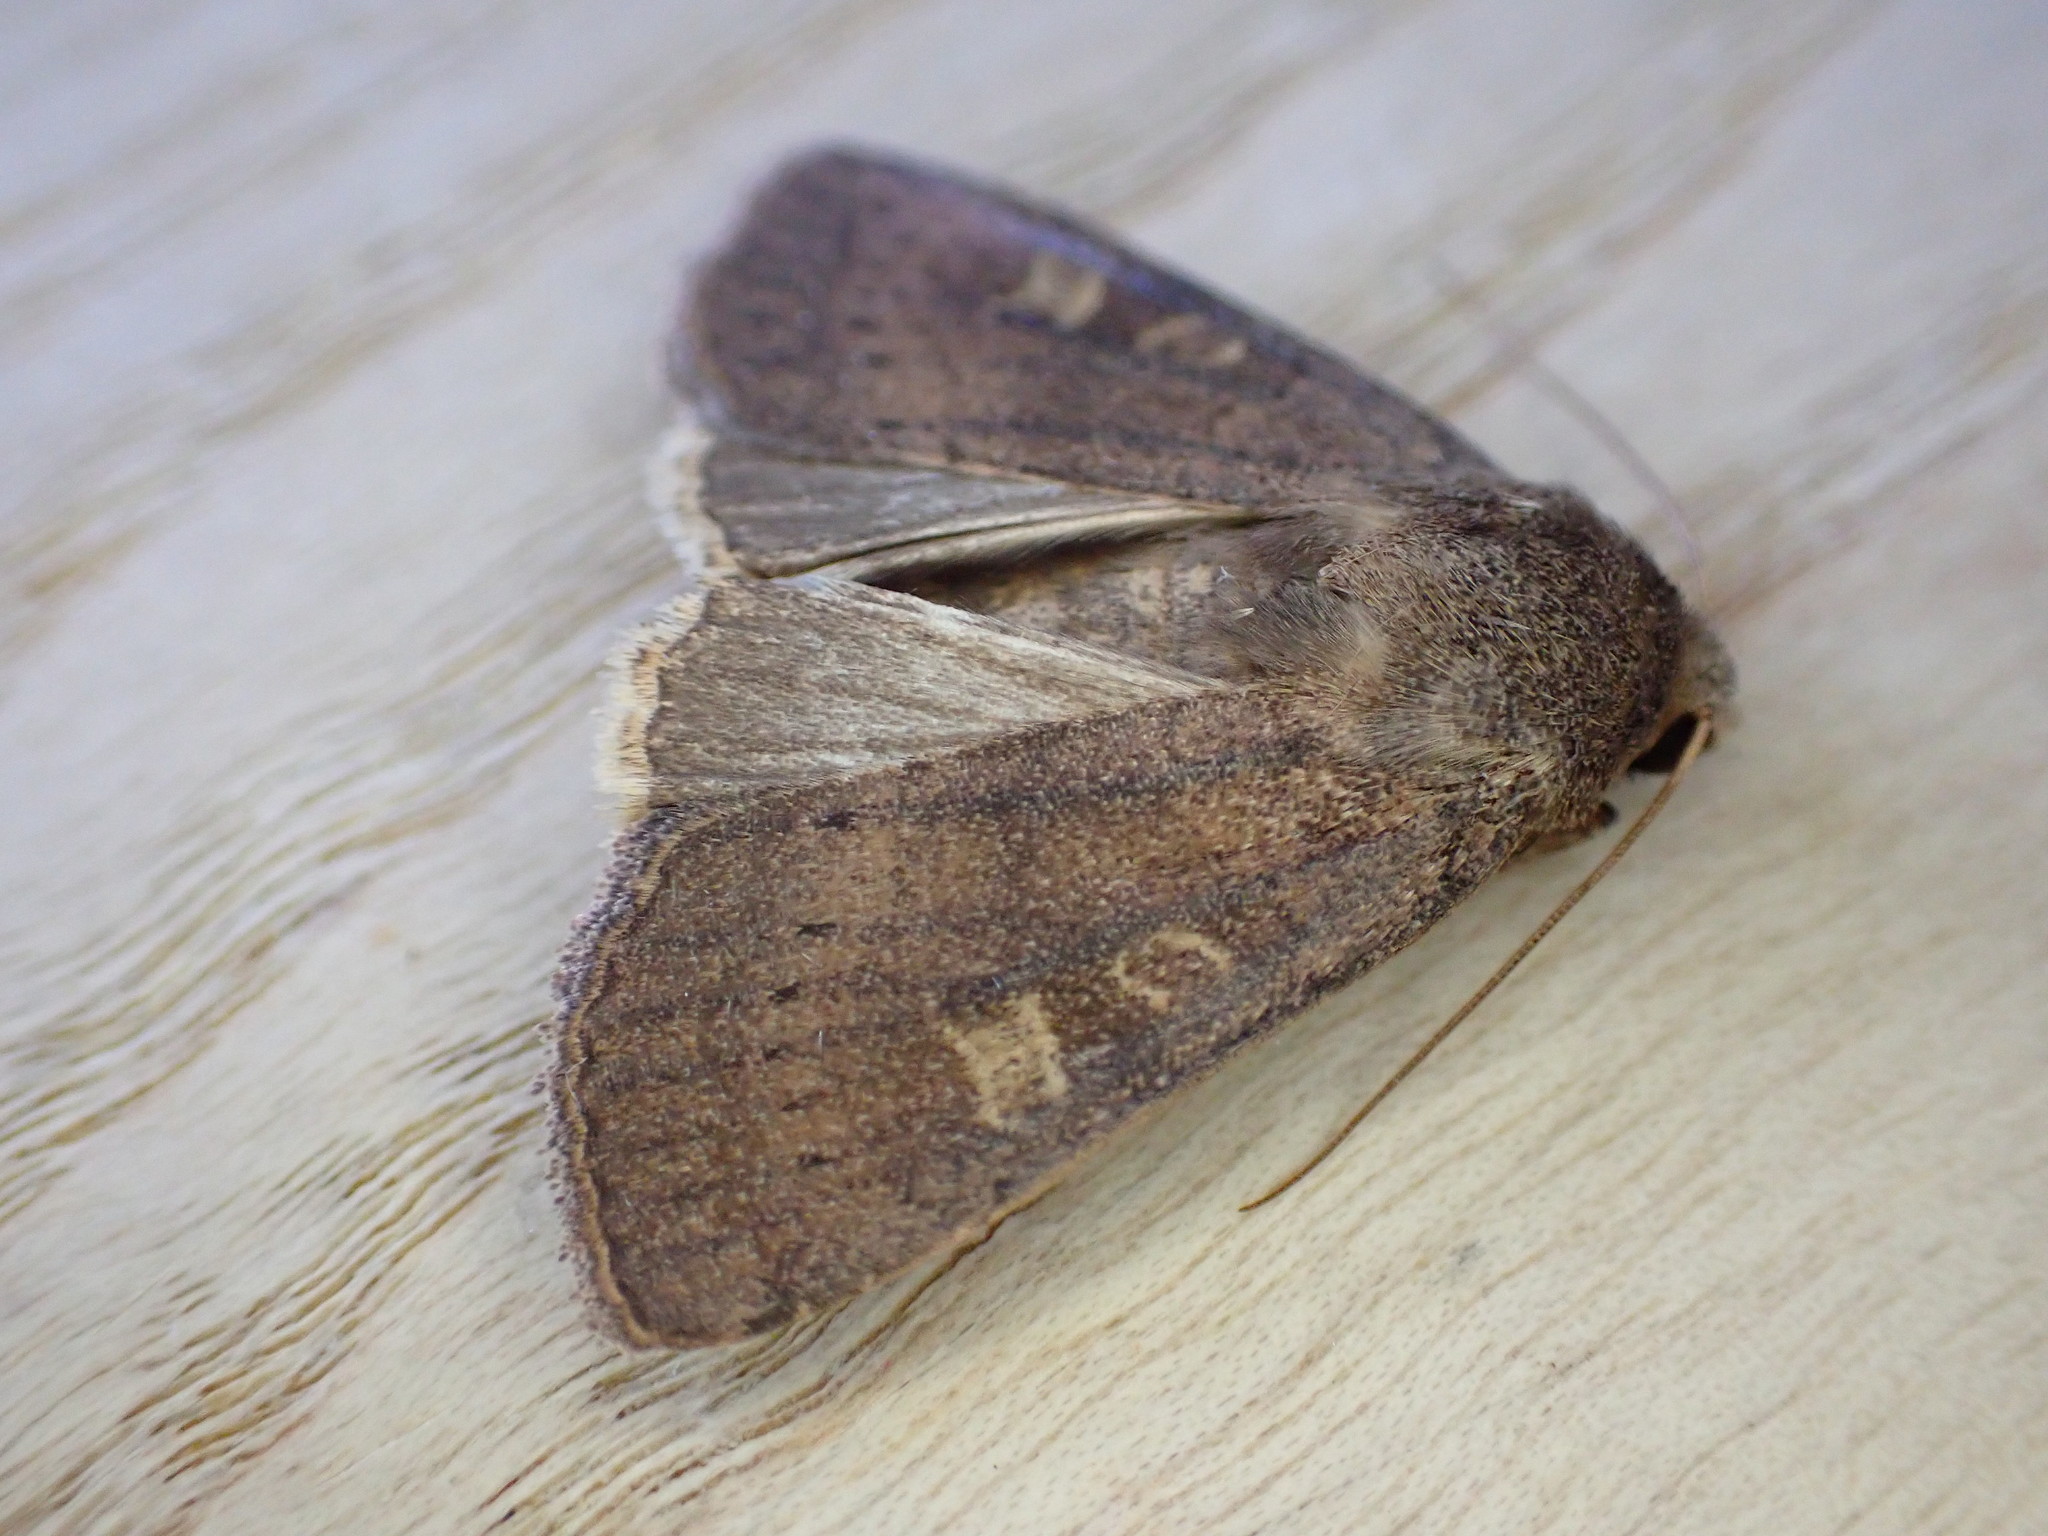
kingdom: Animalia
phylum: Arthropoda
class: Insecta
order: Lepidoptera
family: Noctuidae
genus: Xestia
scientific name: Xestia xanthographa
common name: Square-spot rustic
